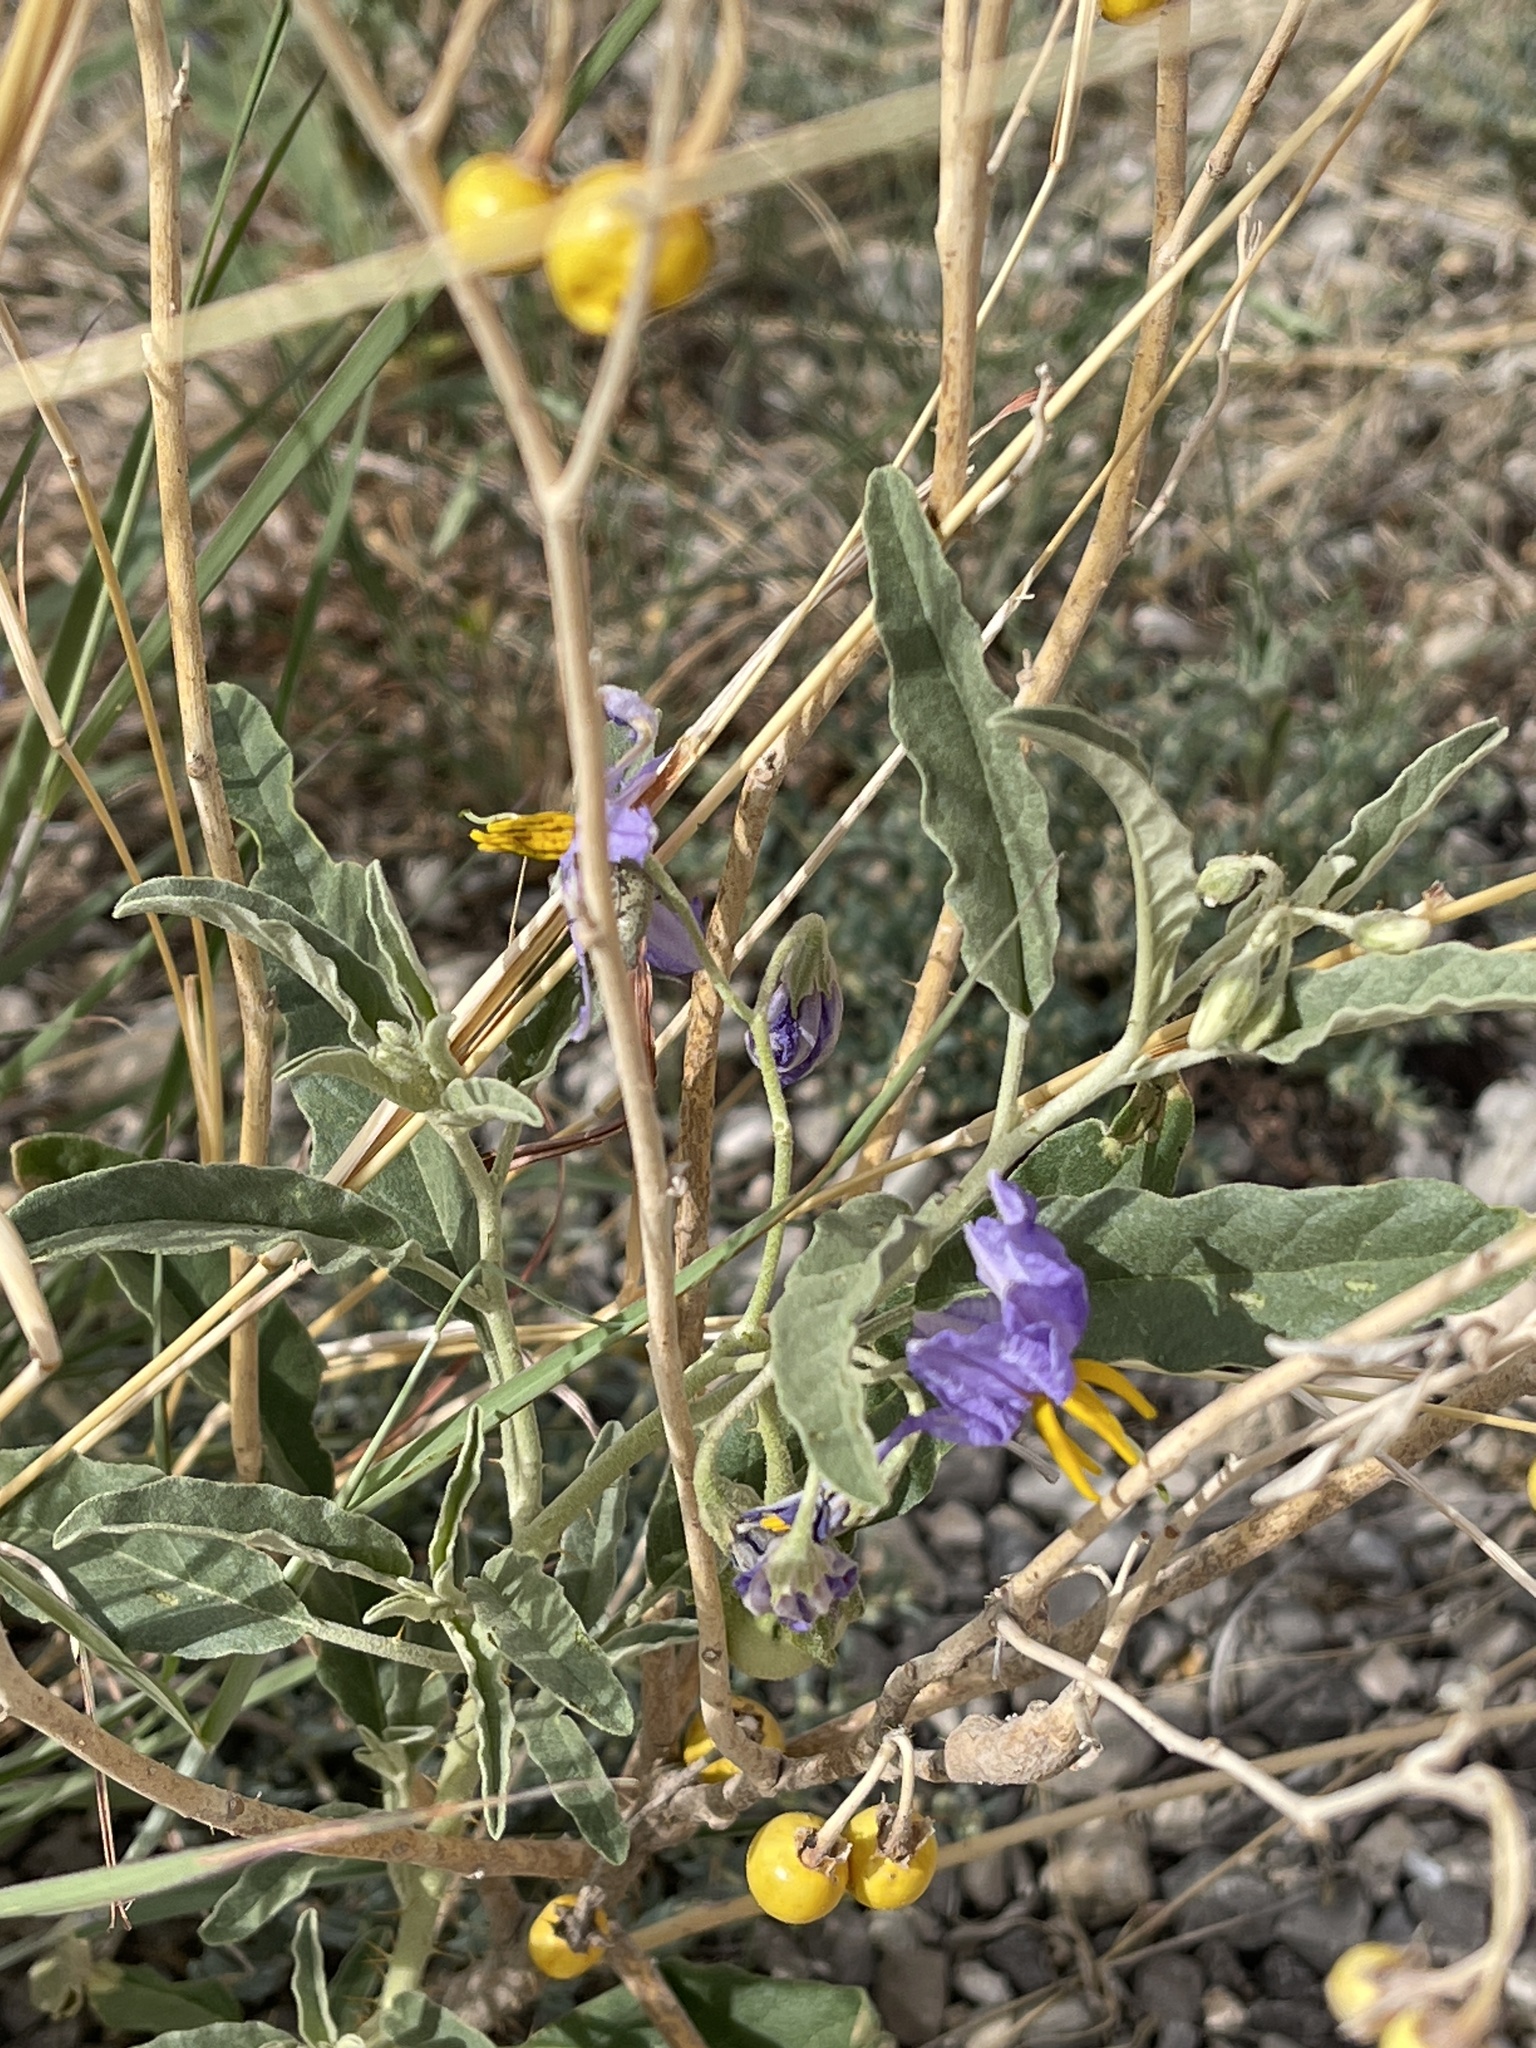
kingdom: Plantae
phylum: Tracheophyta
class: Magnoliopsida
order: Solanales
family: Solanaceae
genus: Solanum
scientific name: Solanum elaeagnifolium
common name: Silverleaf nightshade
